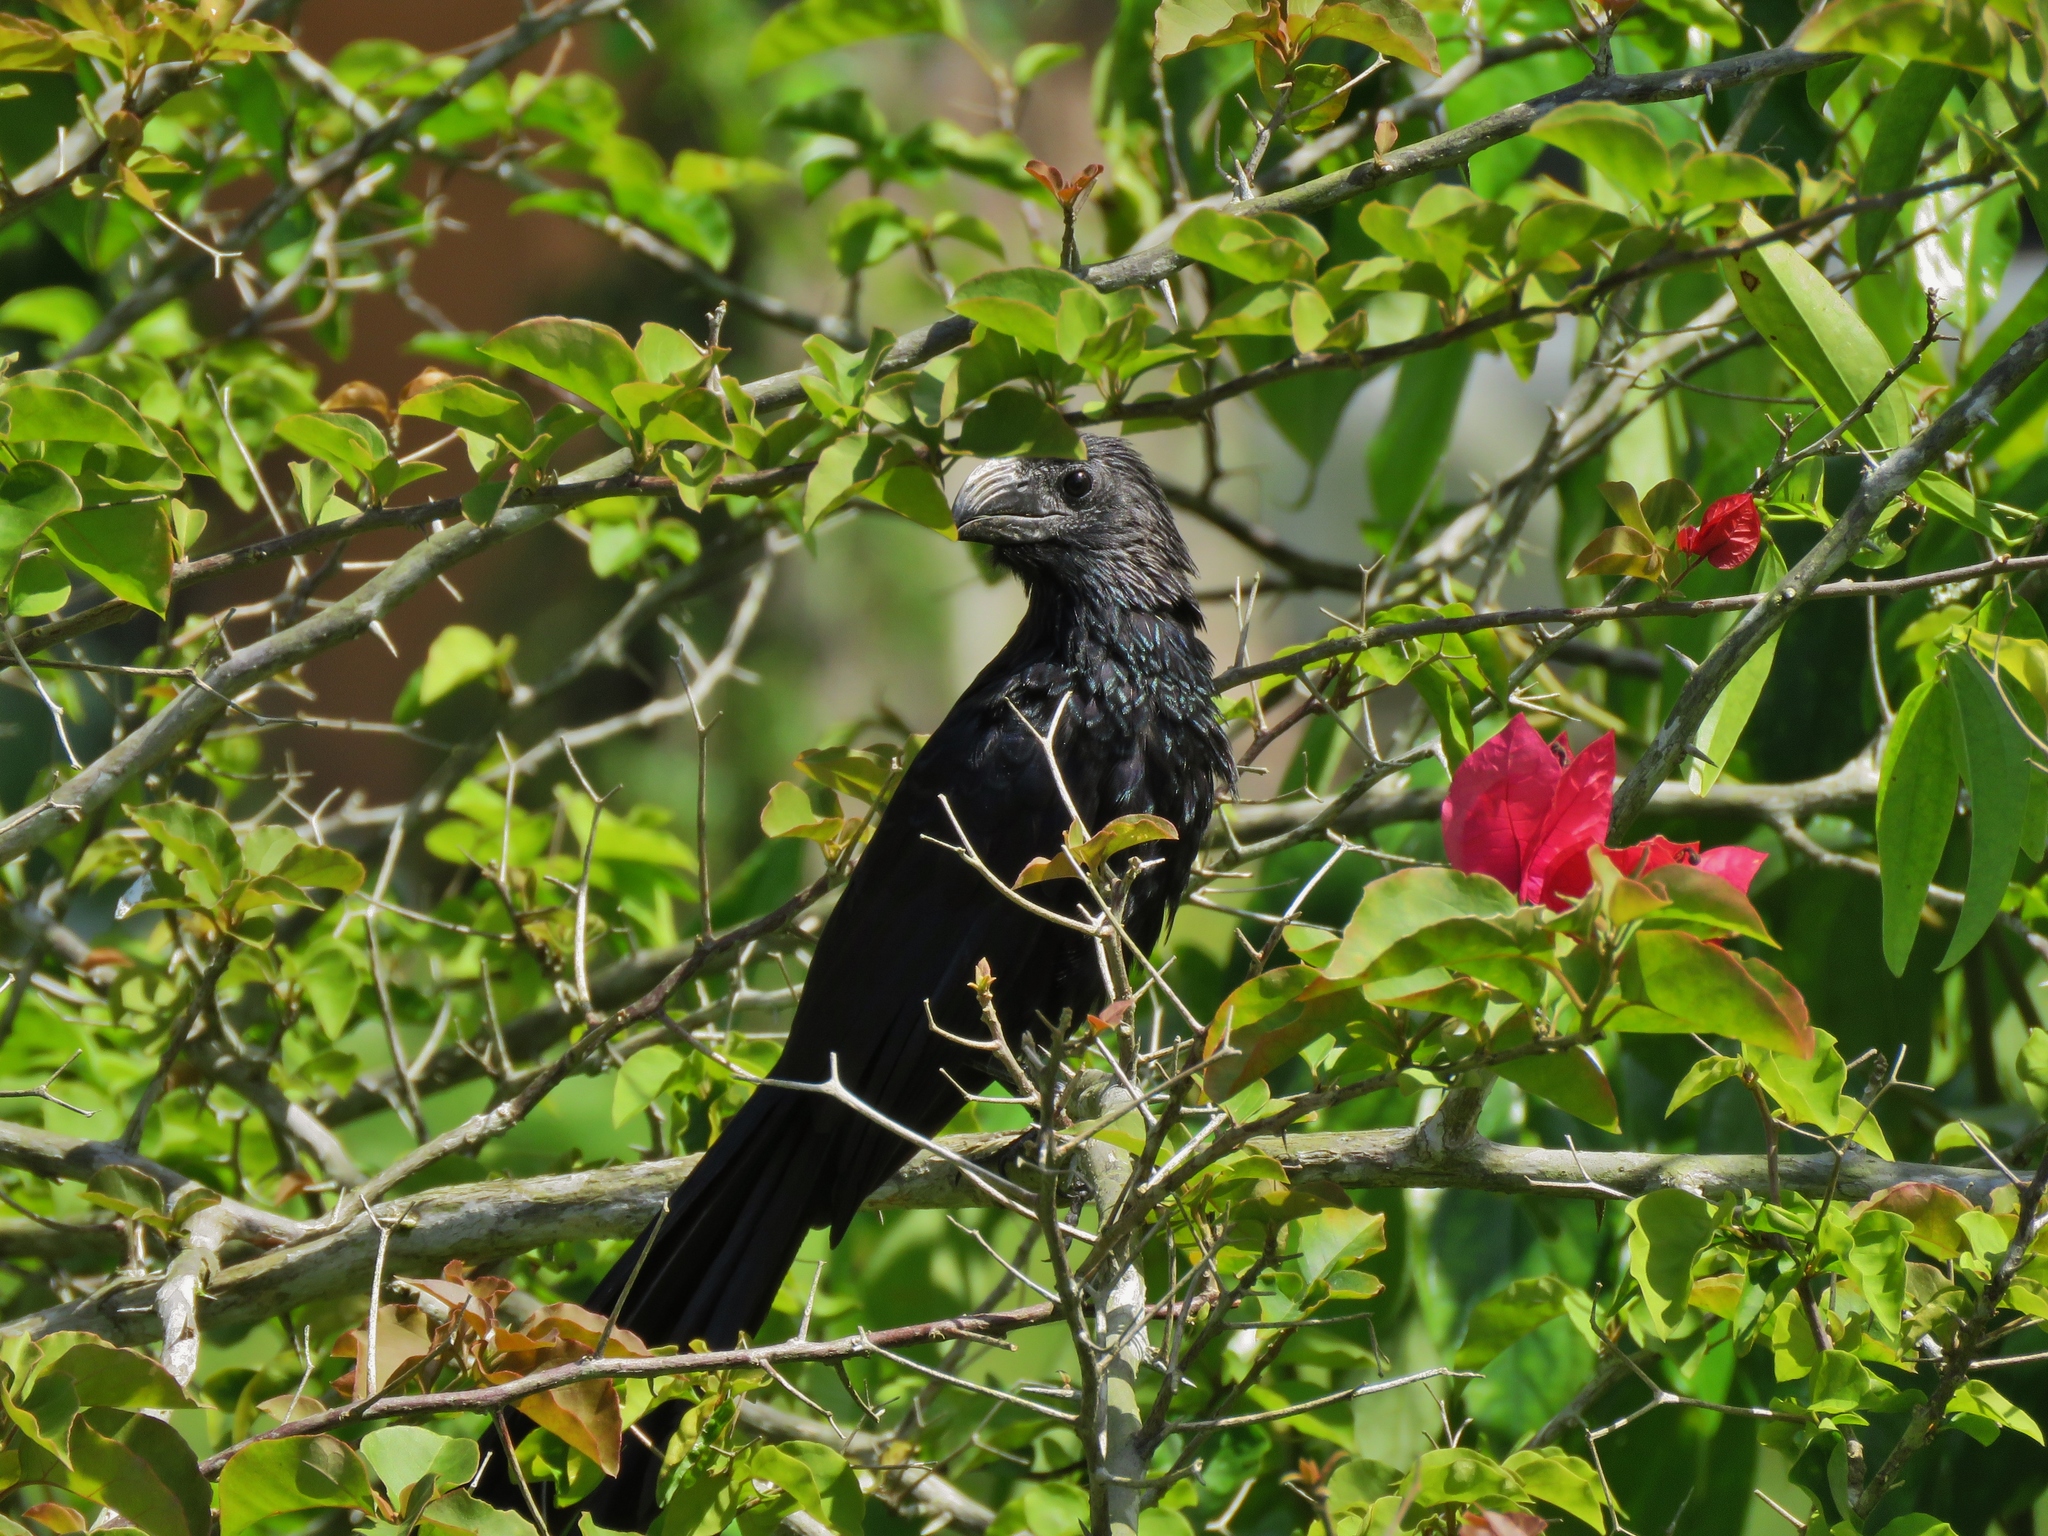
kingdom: Animalia
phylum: Chordata
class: Aves
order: Cuculiformes
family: Cuculidae
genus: Crotophaga
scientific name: Crotophaga sulcirostris
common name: Groove-billed ani
